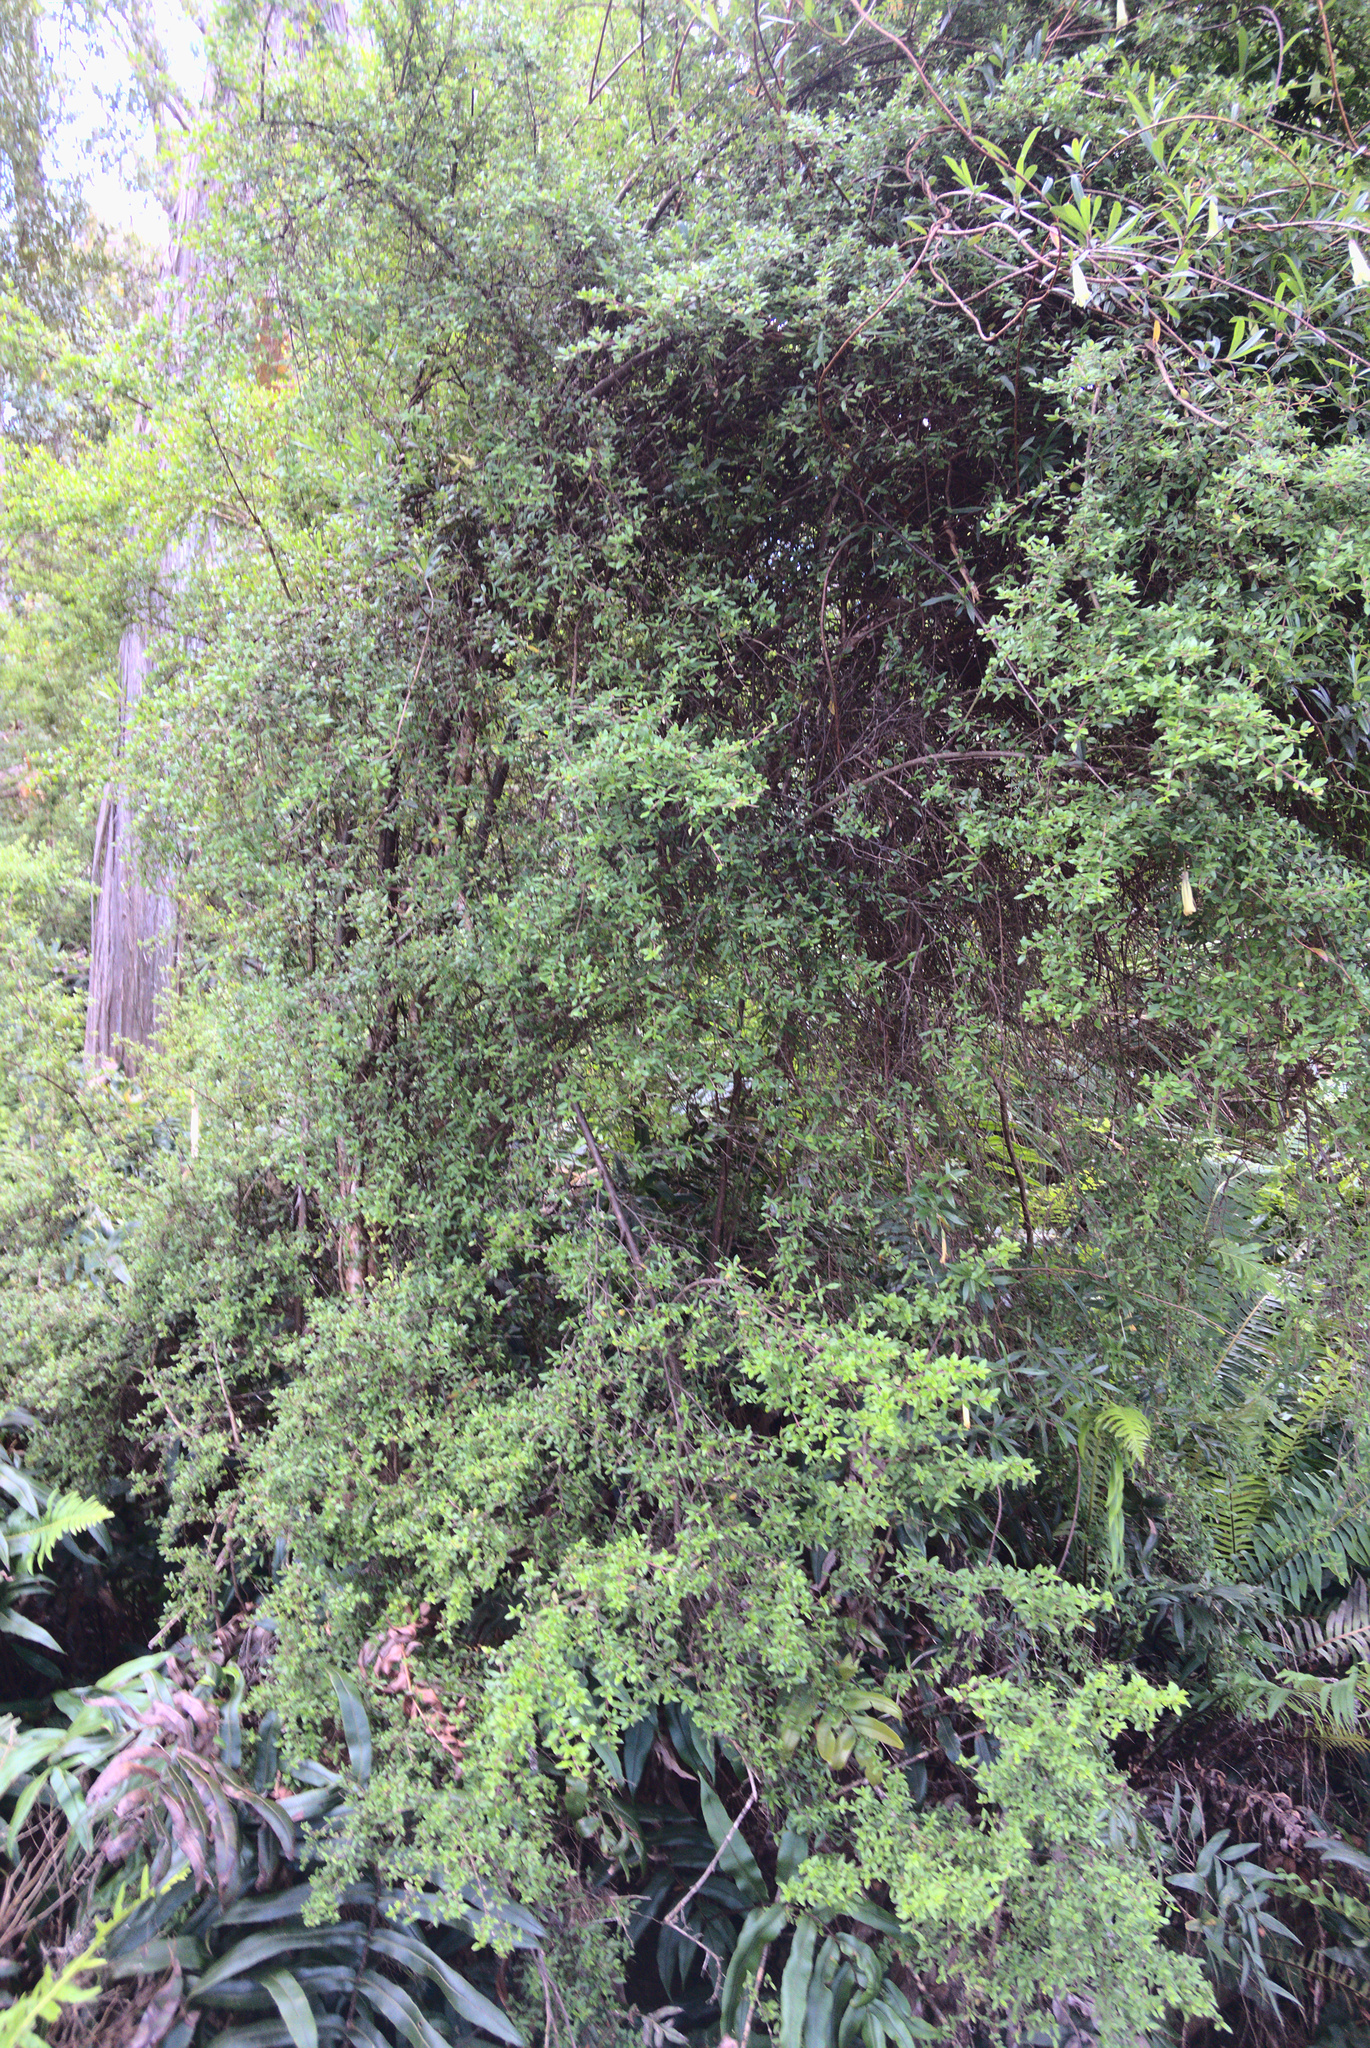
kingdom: Plantae
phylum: Tracheophyta
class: Magnoliopsida
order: Gentianales
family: Rubiaceae
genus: Coprosma
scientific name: Coprosma quadrifida
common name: Prickly currantbush
